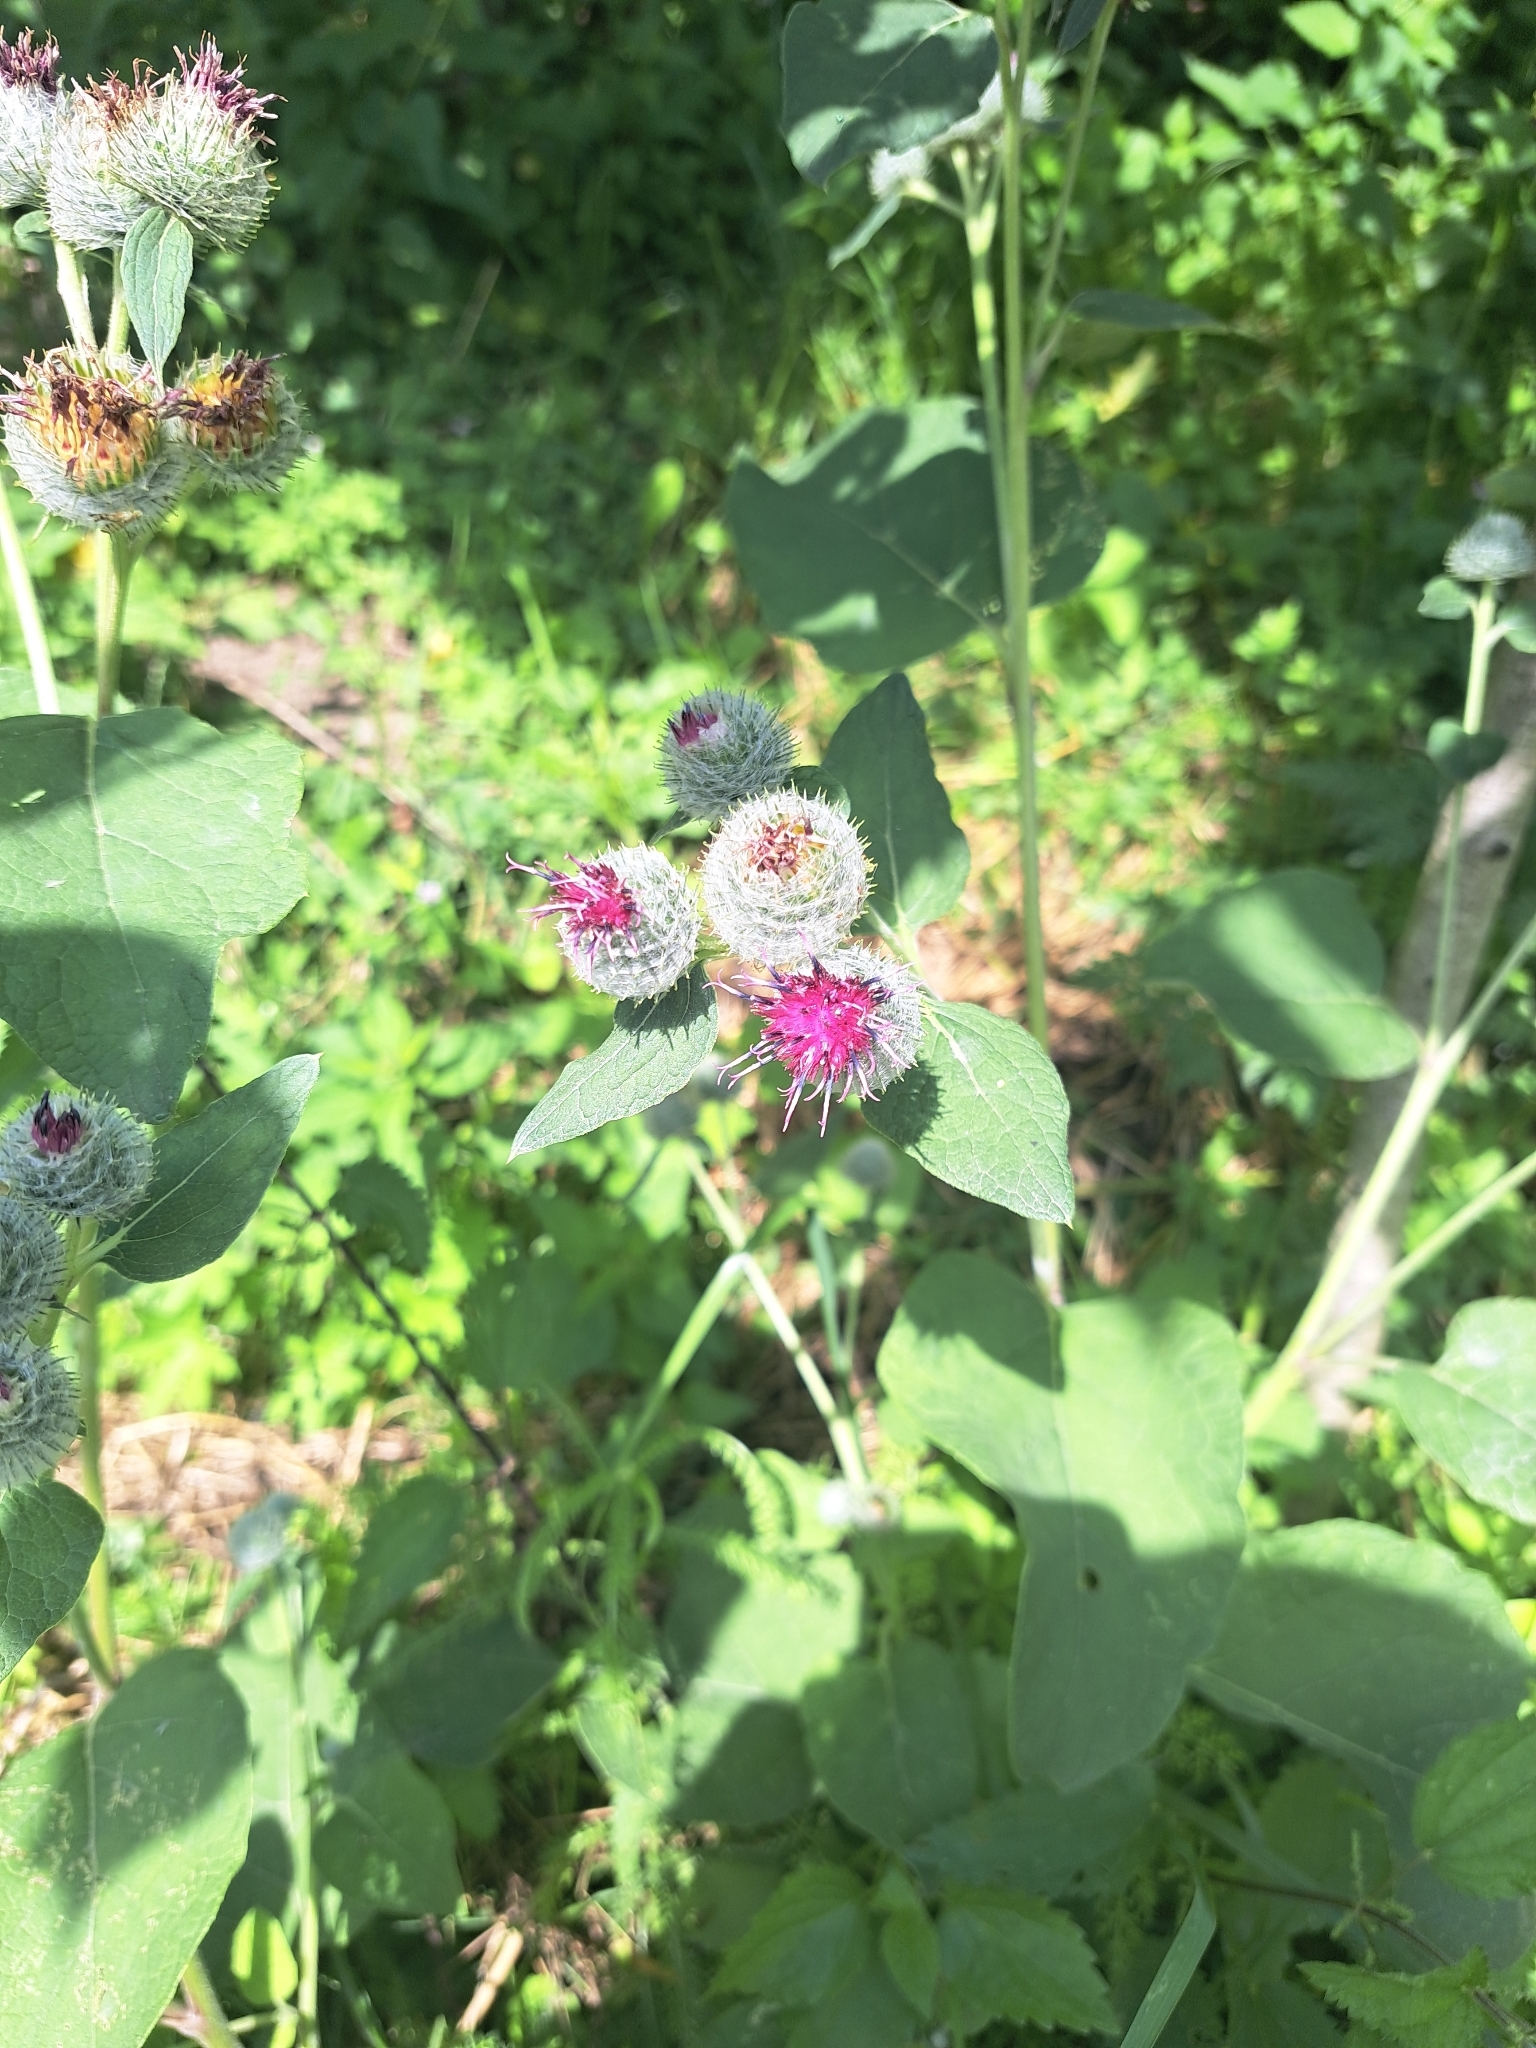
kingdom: Plantae
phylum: Tracheophyta
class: Magnoliopsida
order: Asterales
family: Asteraceae
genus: Arctium
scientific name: Arctium tomentosum
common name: Woolly burdock
